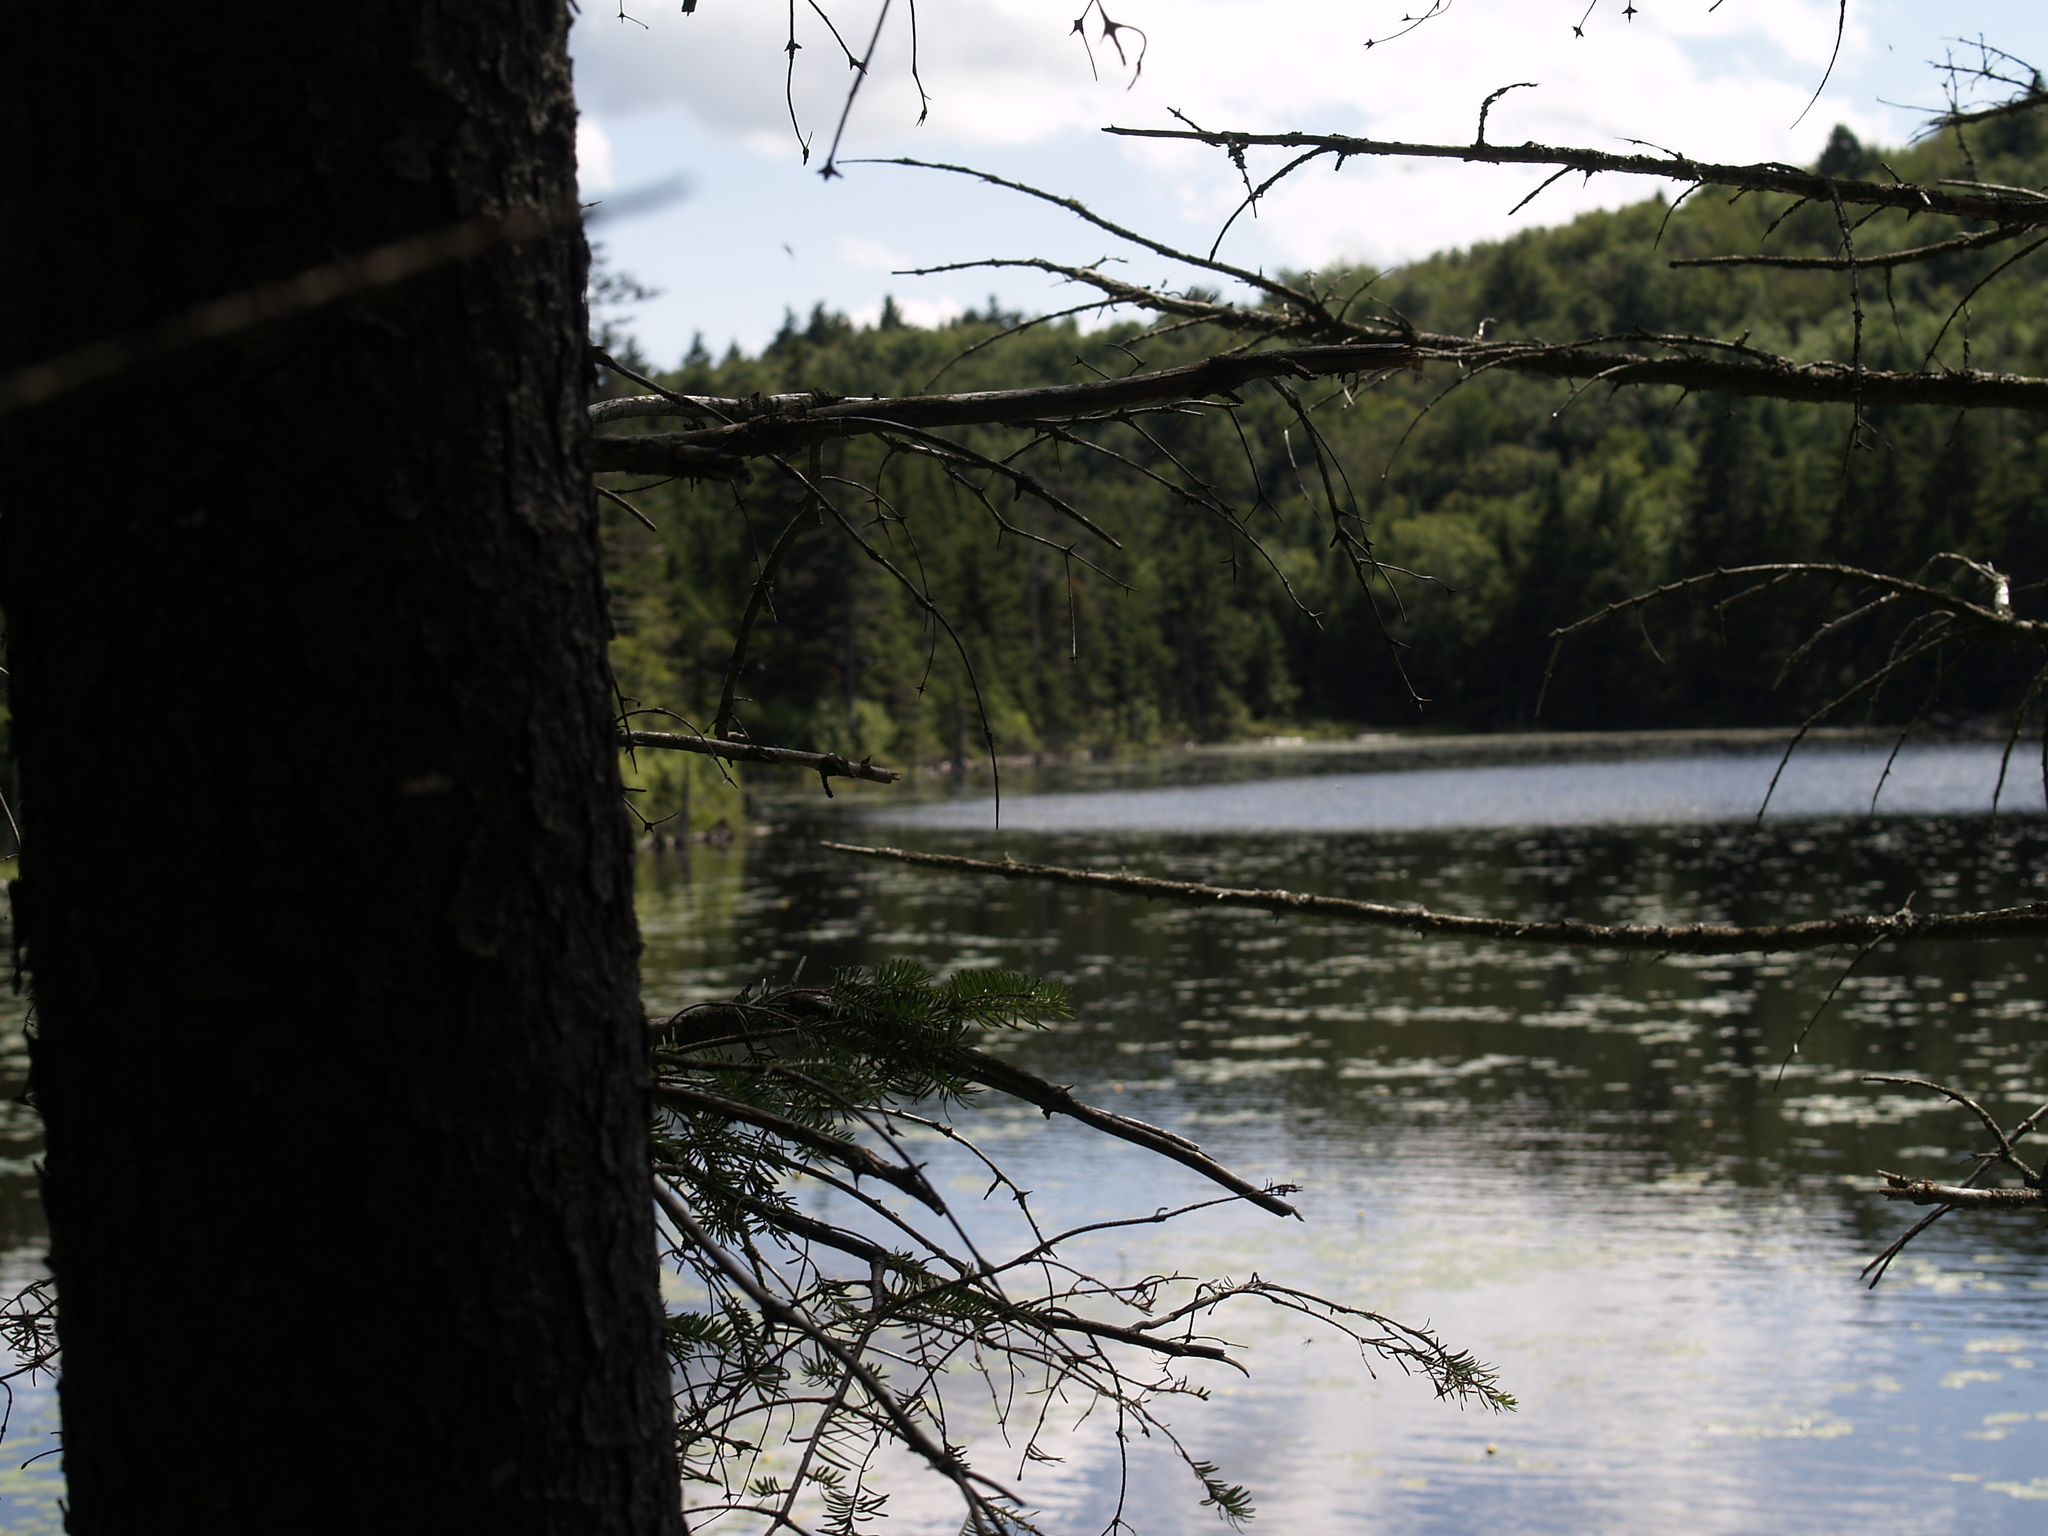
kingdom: Plantae
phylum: Tracheophyta
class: Pinopsida
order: Pinales
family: Pinaceae
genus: Tsuga
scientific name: Tsuga canadensis
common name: Eastern hemlock
